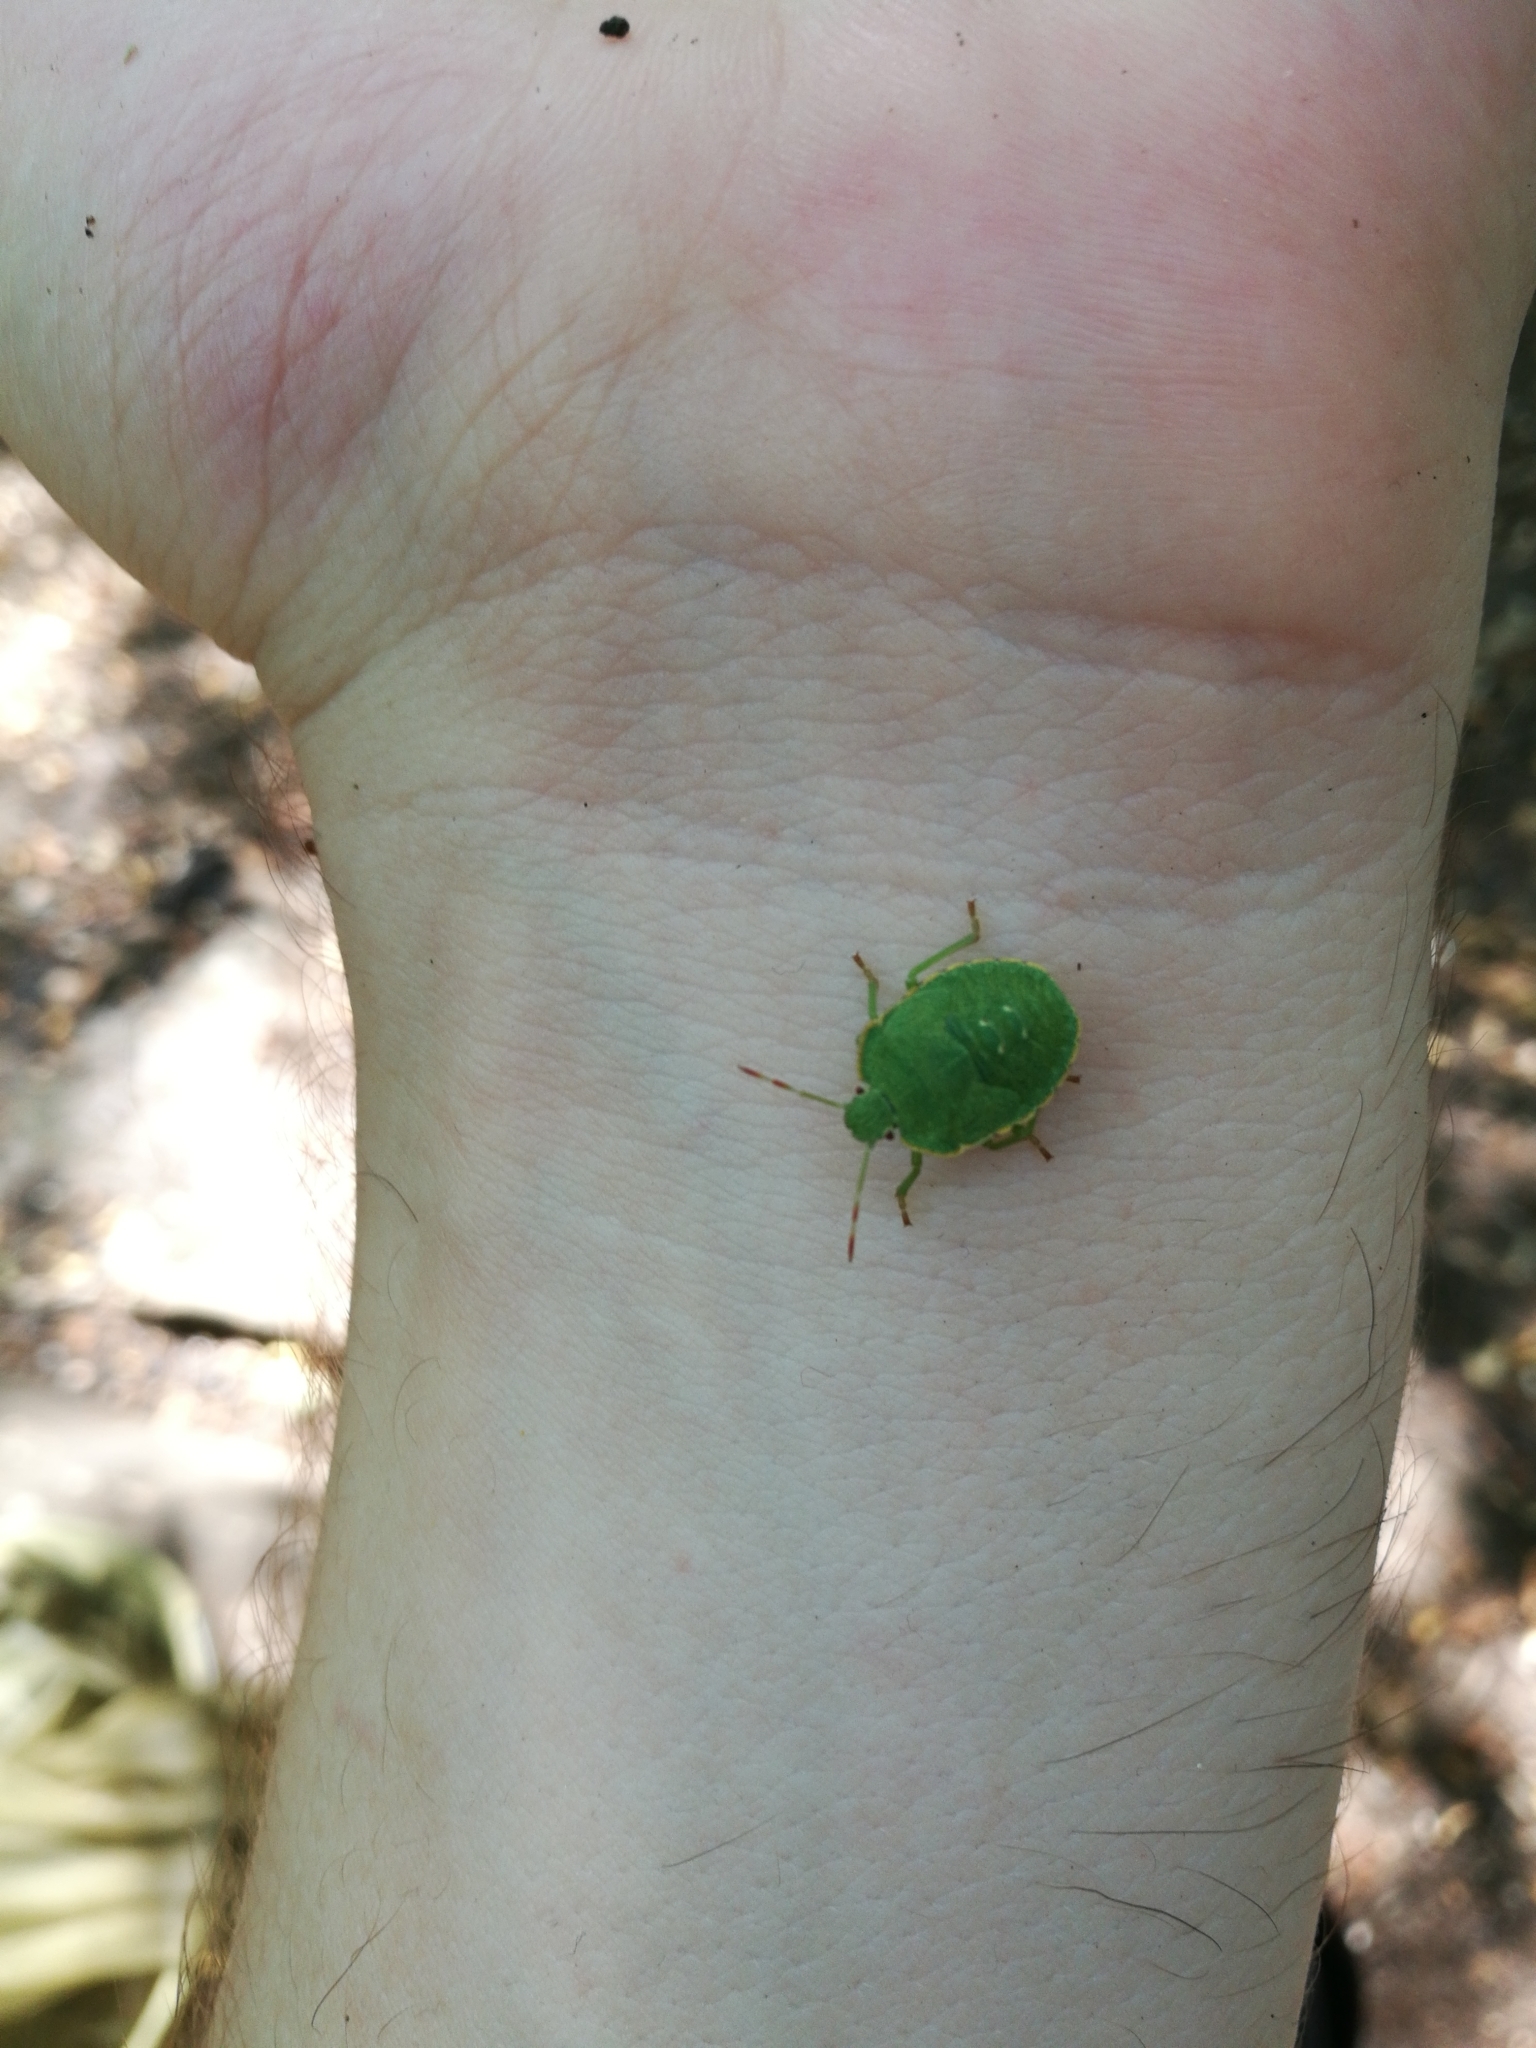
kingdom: Animalia
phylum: Arthropoda
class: Insecta
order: Hemiptera
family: Pentatomidae
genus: Palomena
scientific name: Palomena prasina
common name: Green shieldbug
